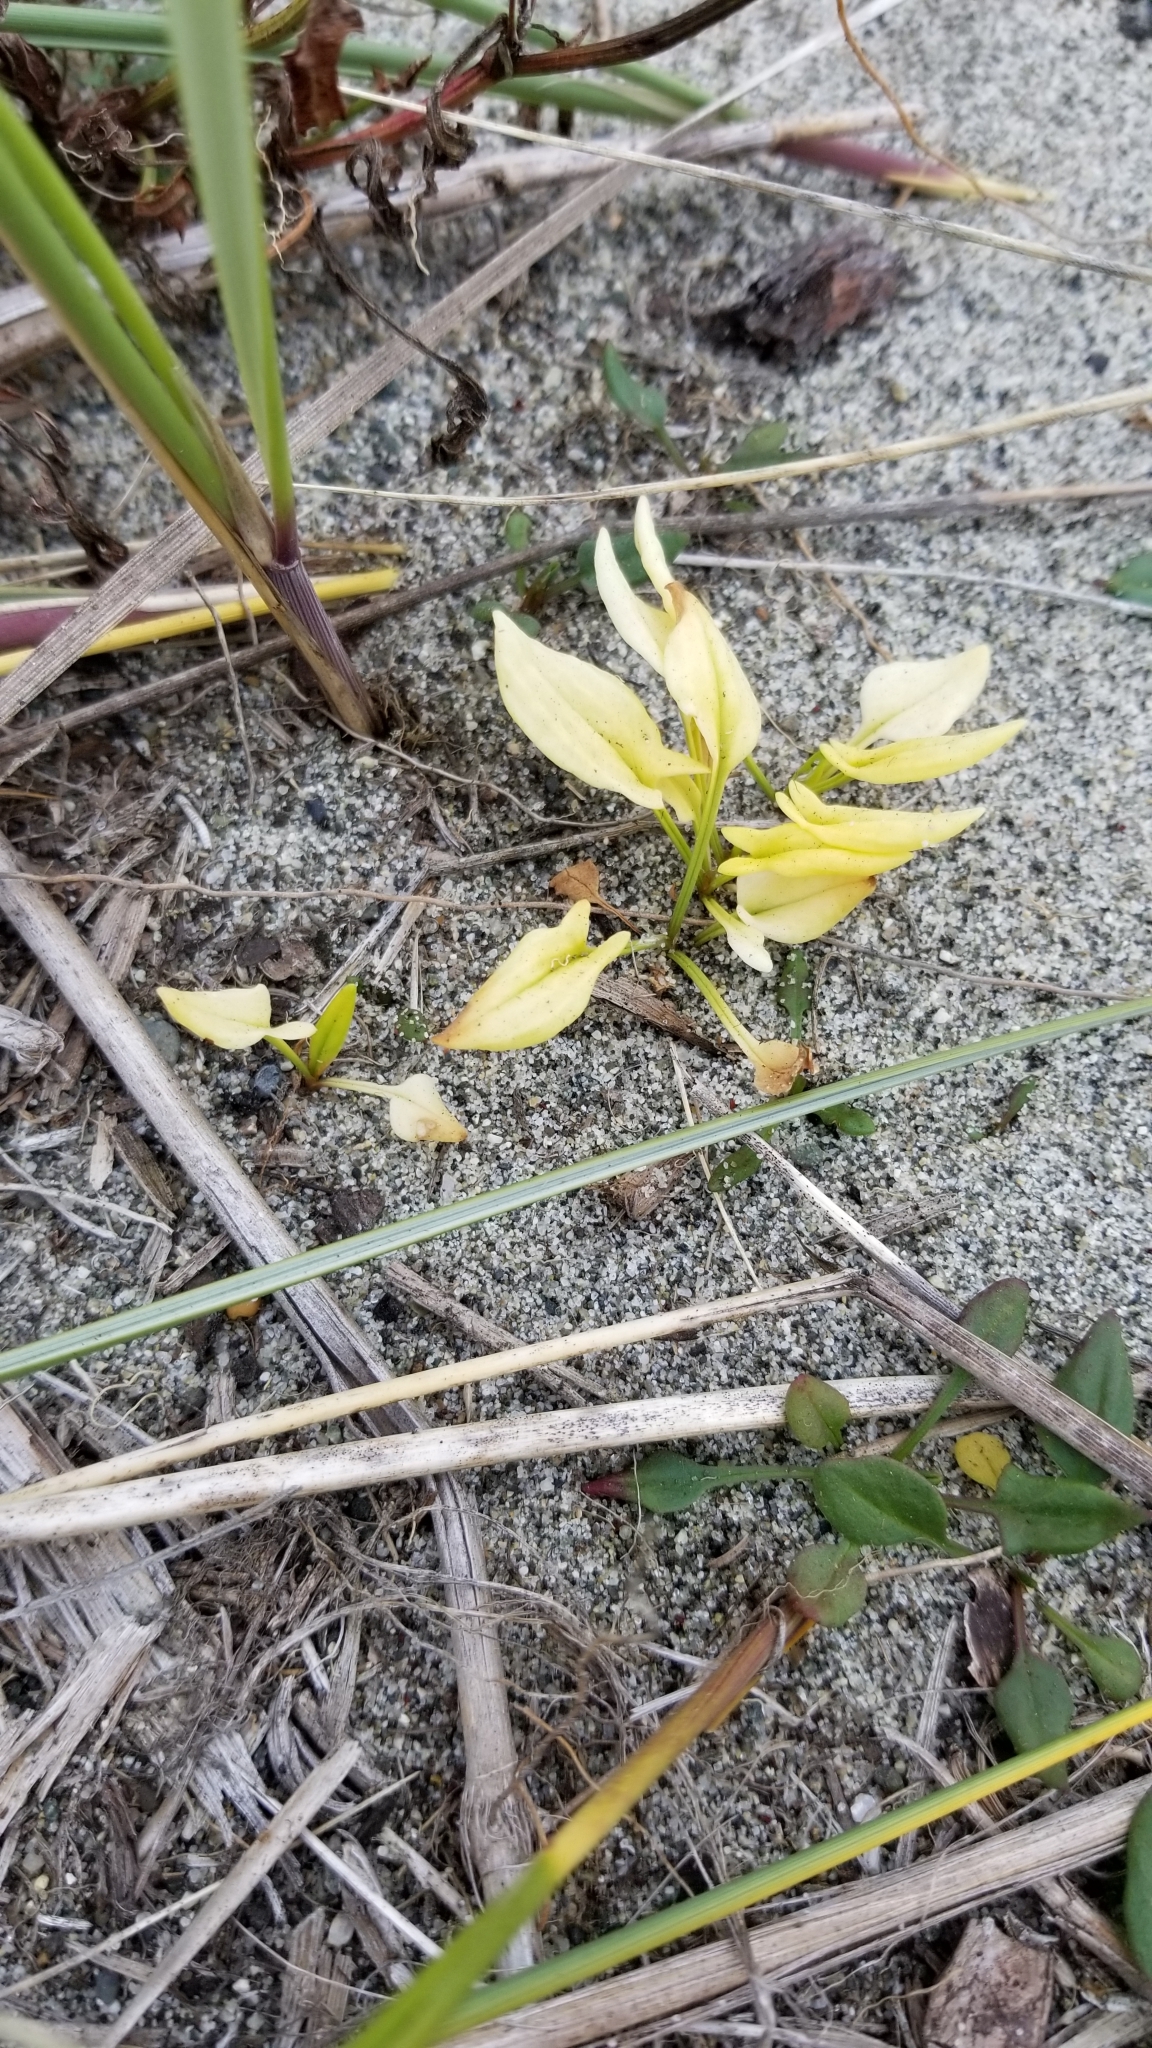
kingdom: Plantae
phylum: Tracheophyta
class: Magnoliopsida
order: Caryophyllales
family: Polygonaceae
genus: Rumex
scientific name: Rumex acetosella
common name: Common sheep sorrel
